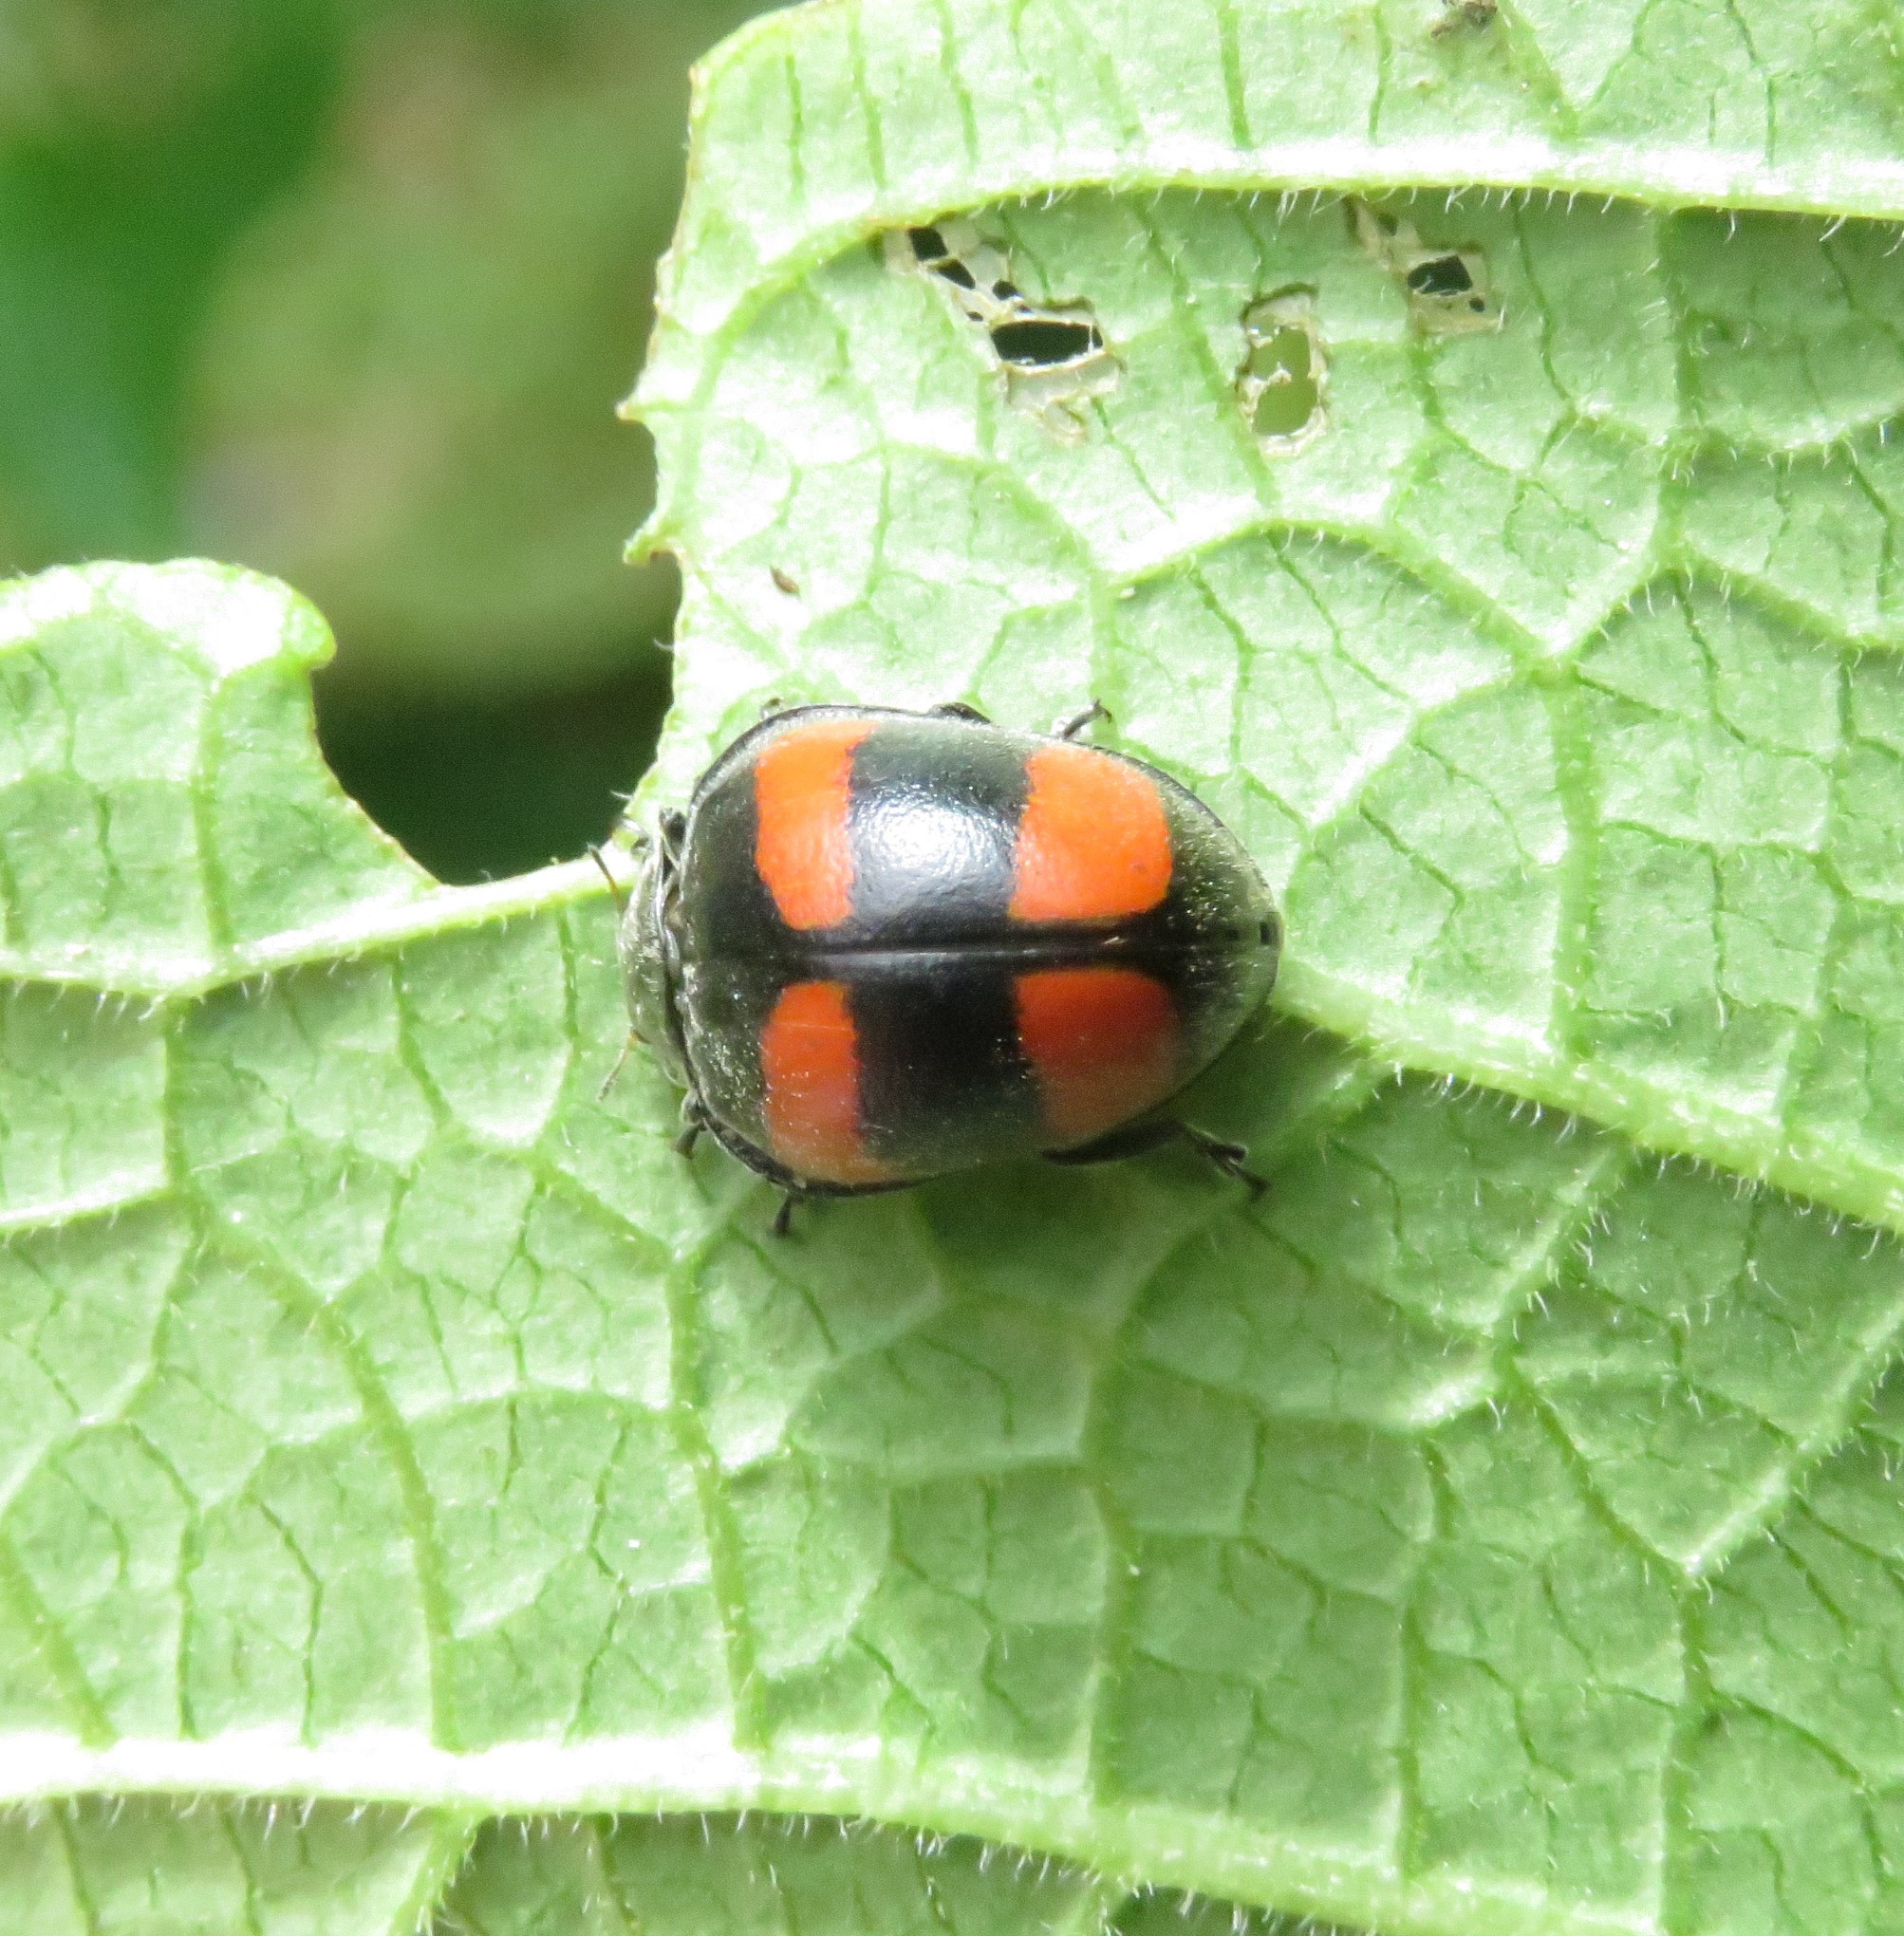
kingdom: Animalia
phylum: Arthropoda
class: Insecta
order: Coleoptera
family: Coccinellidae
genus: Toxotoma
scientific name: Toxotoma flavofasciata
